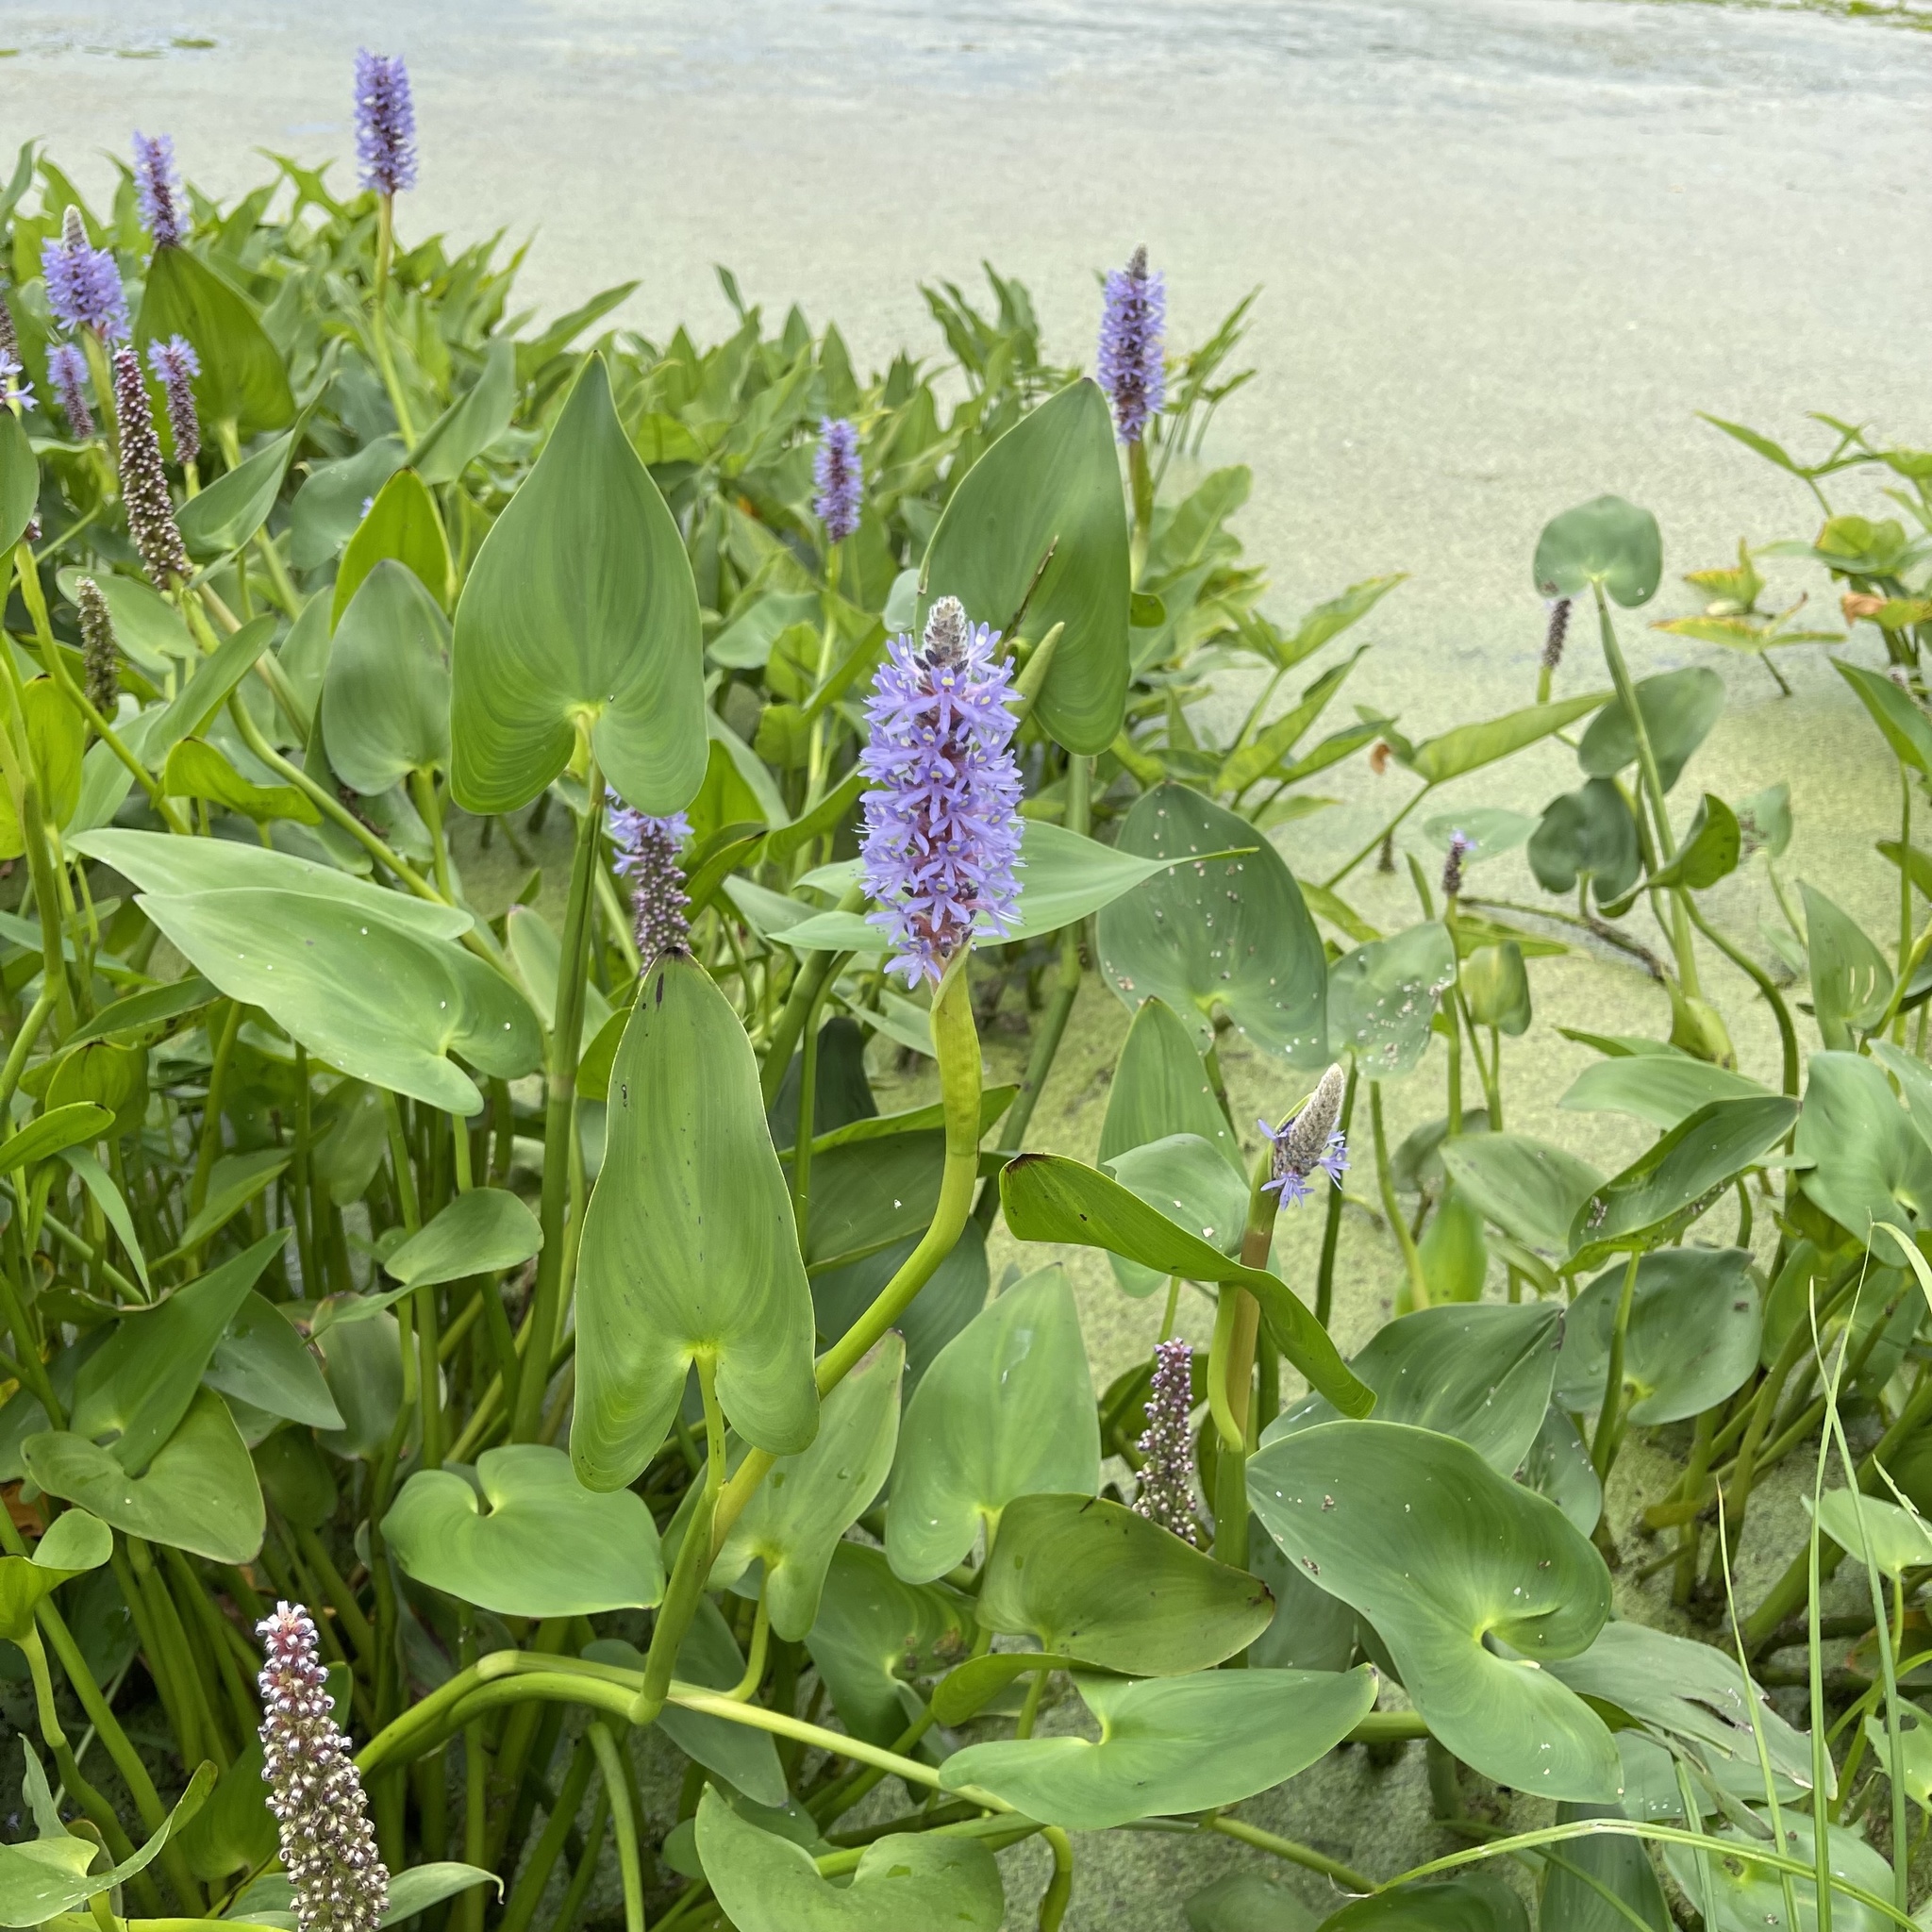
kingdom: Plantae
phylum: Tracheophyta
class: Liliopsida
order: Commelinales
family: Pontederiaceae
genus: Pontederia
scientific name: Pontederia cordata
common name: Pickerelweed
